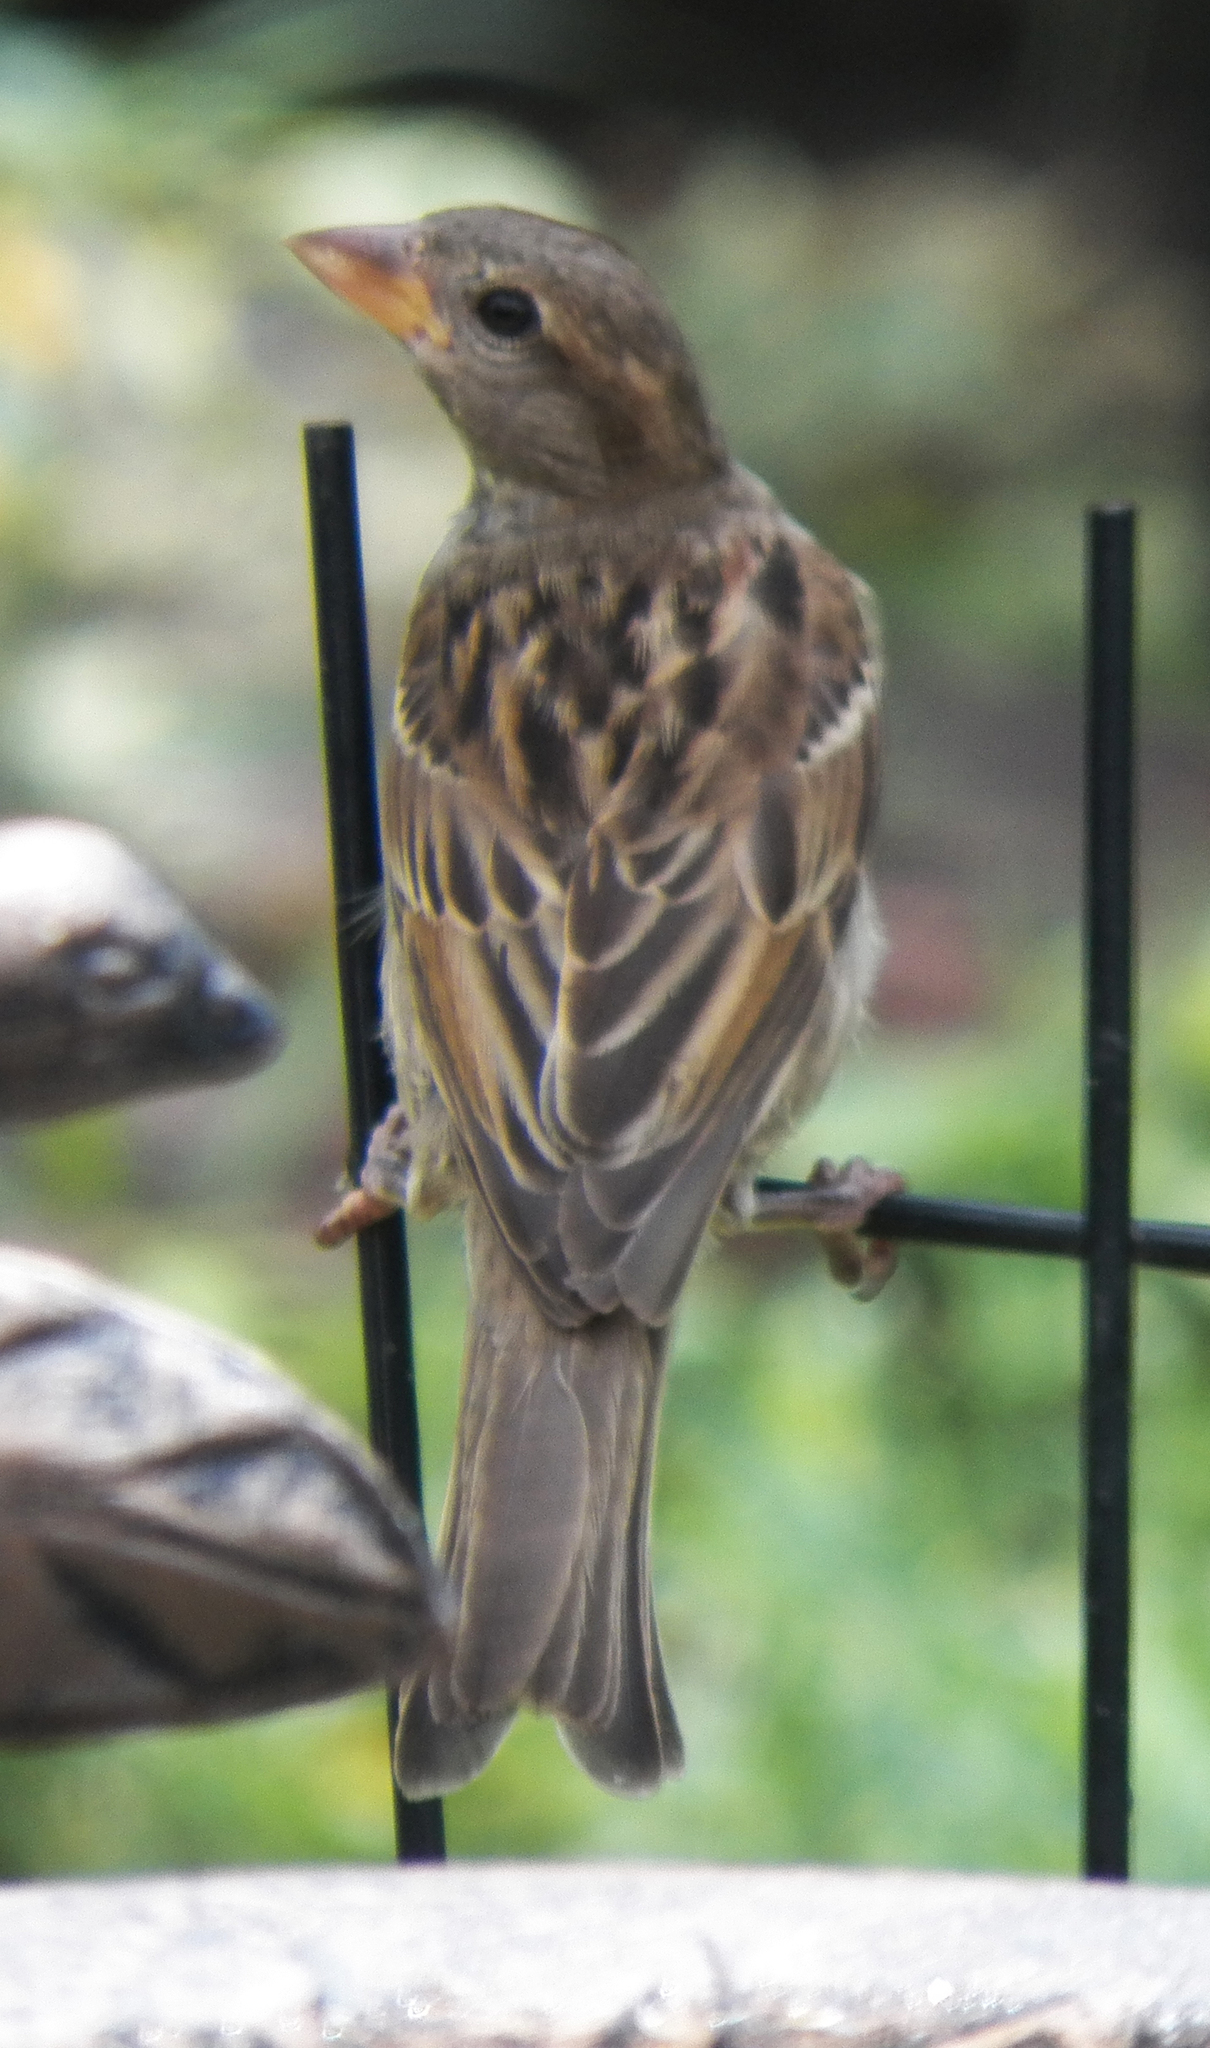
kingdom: Animalia
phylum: Chordata
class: Aves
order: Passeriformes
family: Passeridae
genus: Passer
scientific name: Passer domesticus
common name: House sparrow
